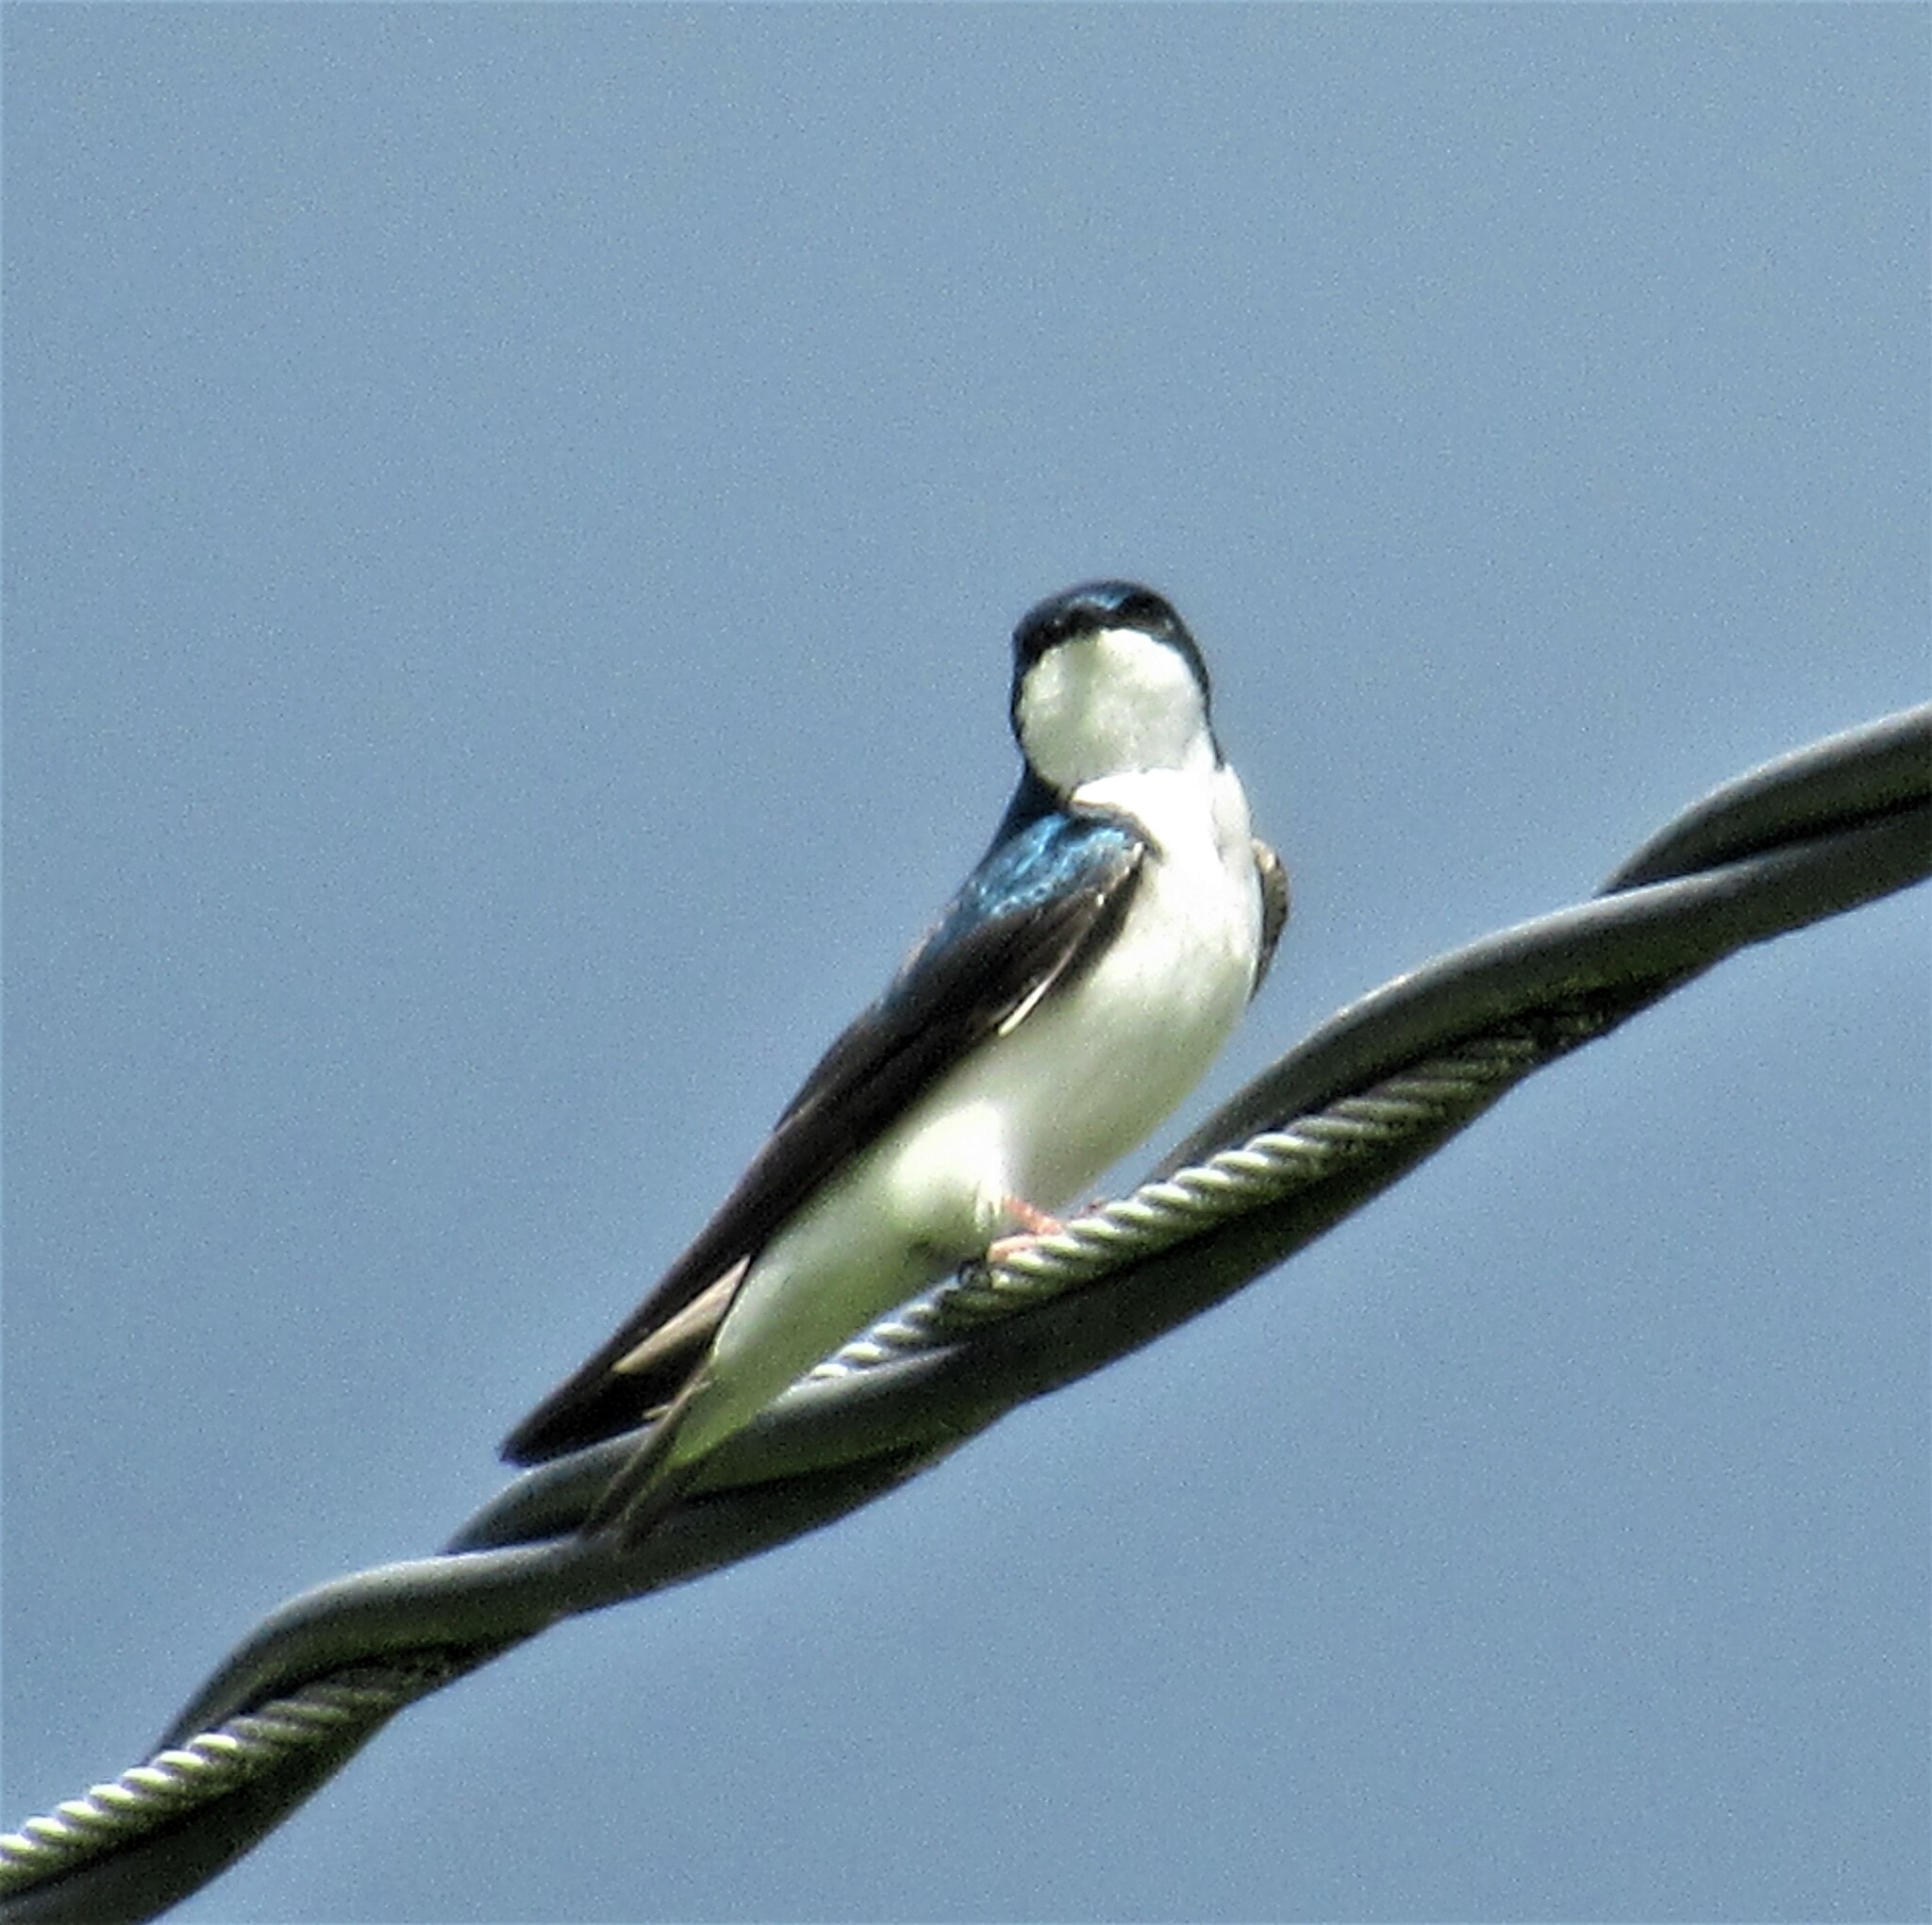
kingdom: Animalia
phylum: Chordata
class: Aves
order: Passeriformes
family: Hirundinidae
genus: Tachycineta
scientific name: Tachycineta bicolor
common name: Tree swallow
